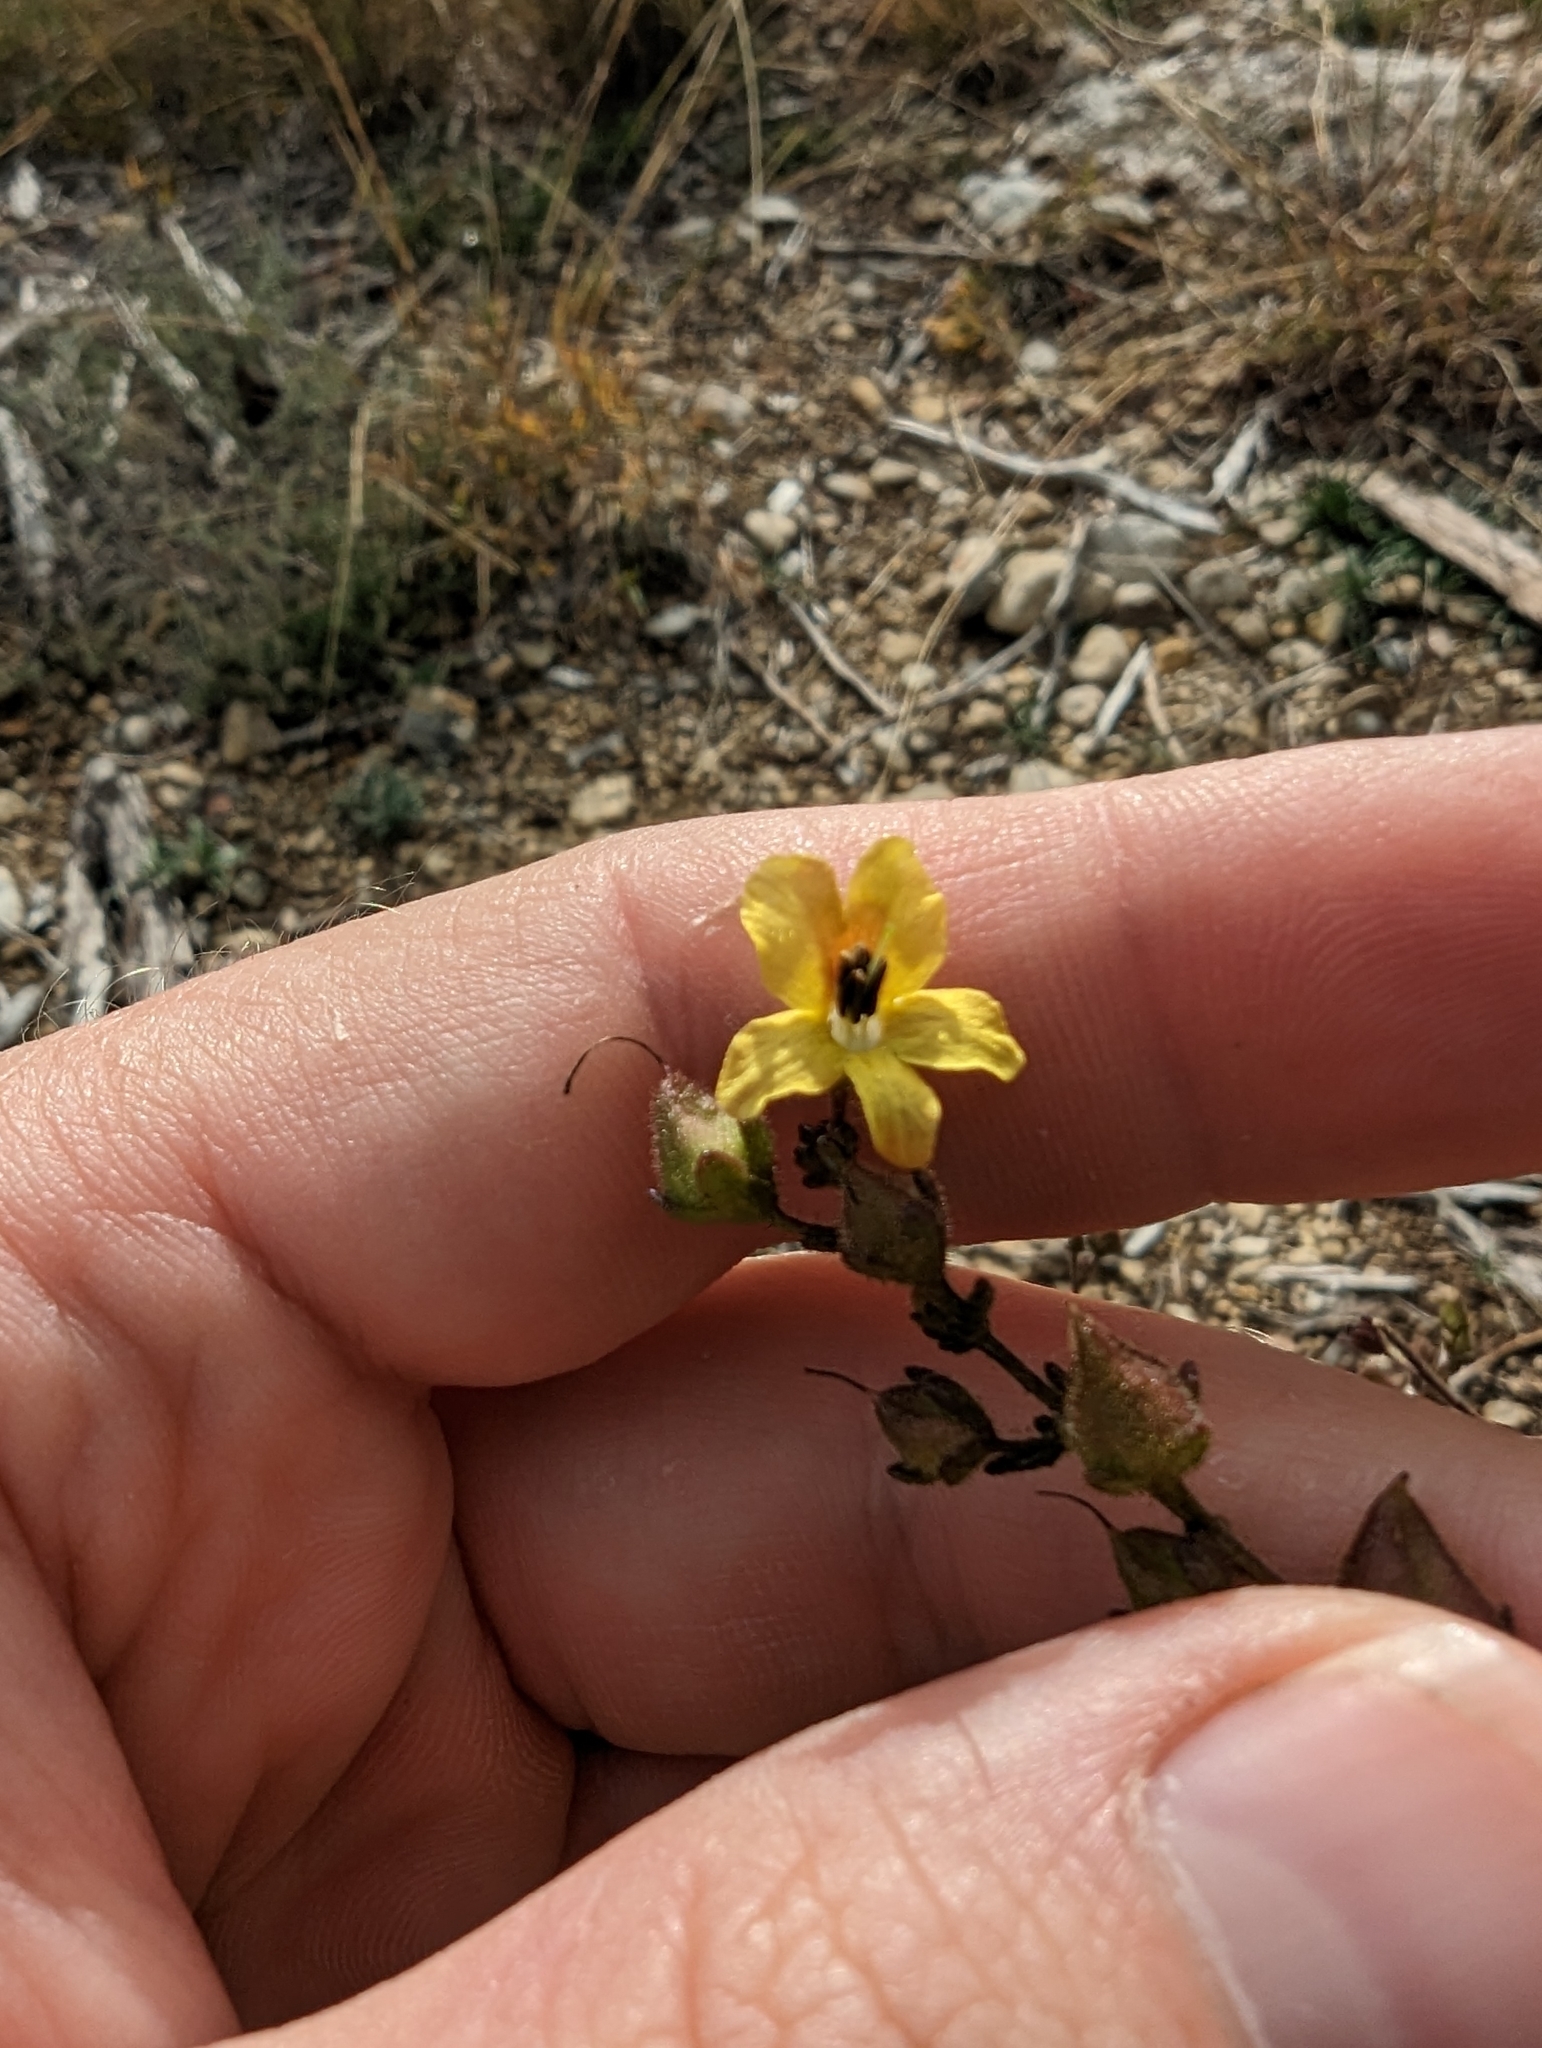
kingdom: Plantae
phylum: Tracheophyta
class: Magnoliopsida
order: Lamiales
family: Orobanchaceae
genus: Seymeria
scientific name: Seymeria bipinnatisecta
